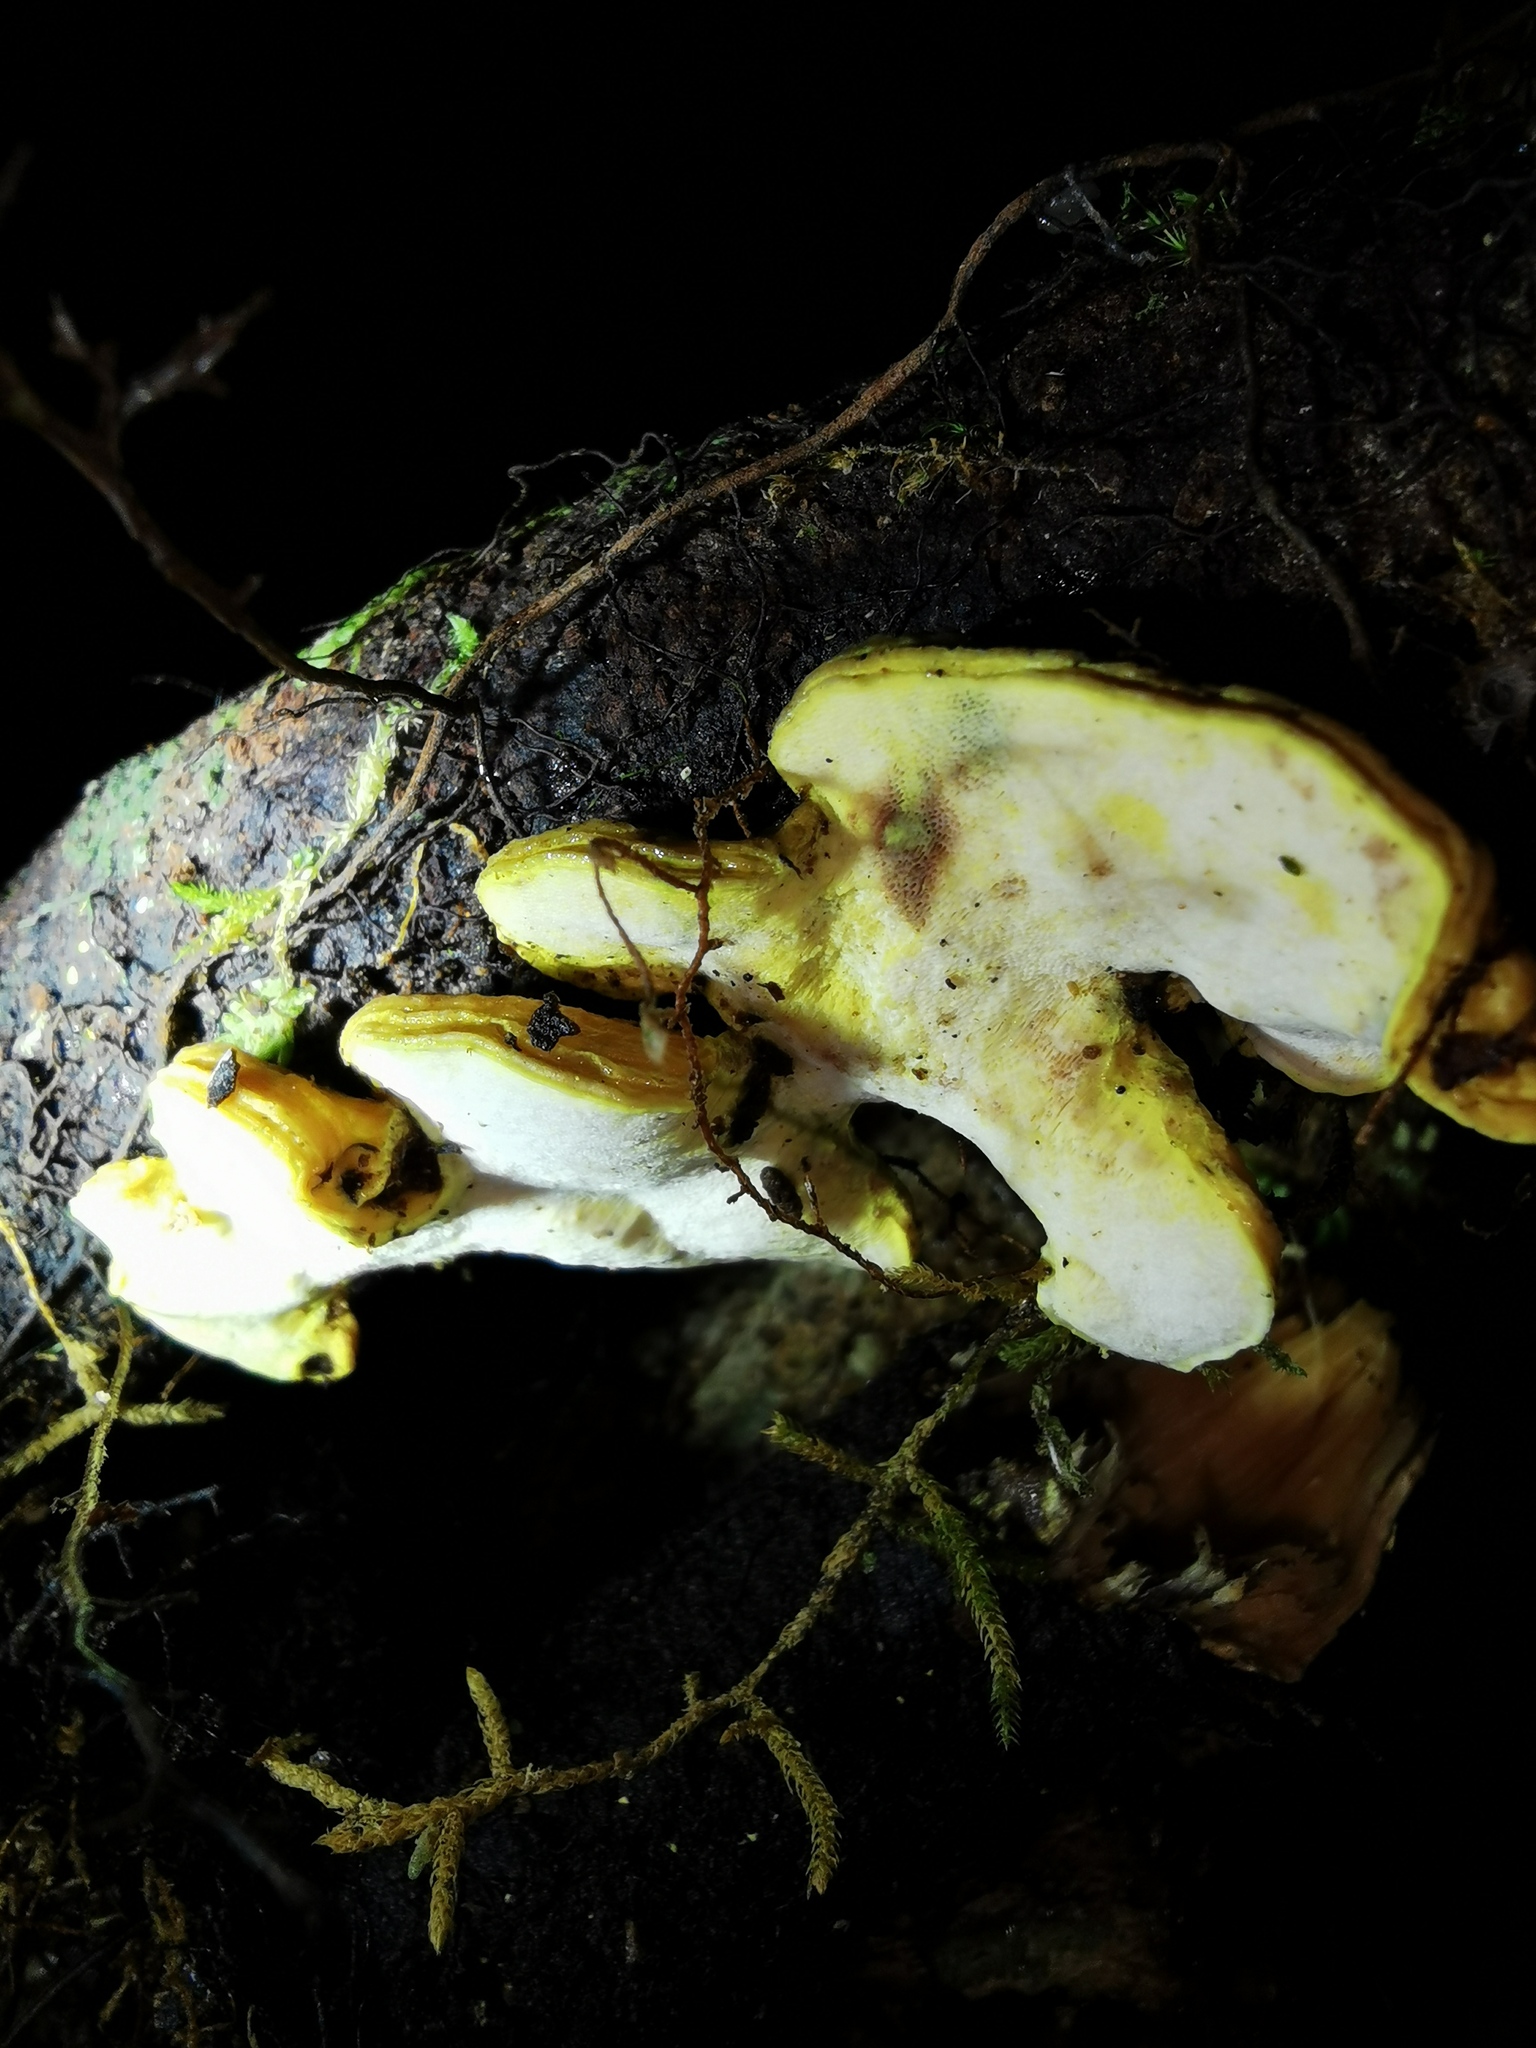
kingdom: Fungi
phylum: Basidiomycota
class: Agaricomycetes
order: Polyporales
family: Steccherinaceae
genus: Austeria
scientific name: Austeria citrea
